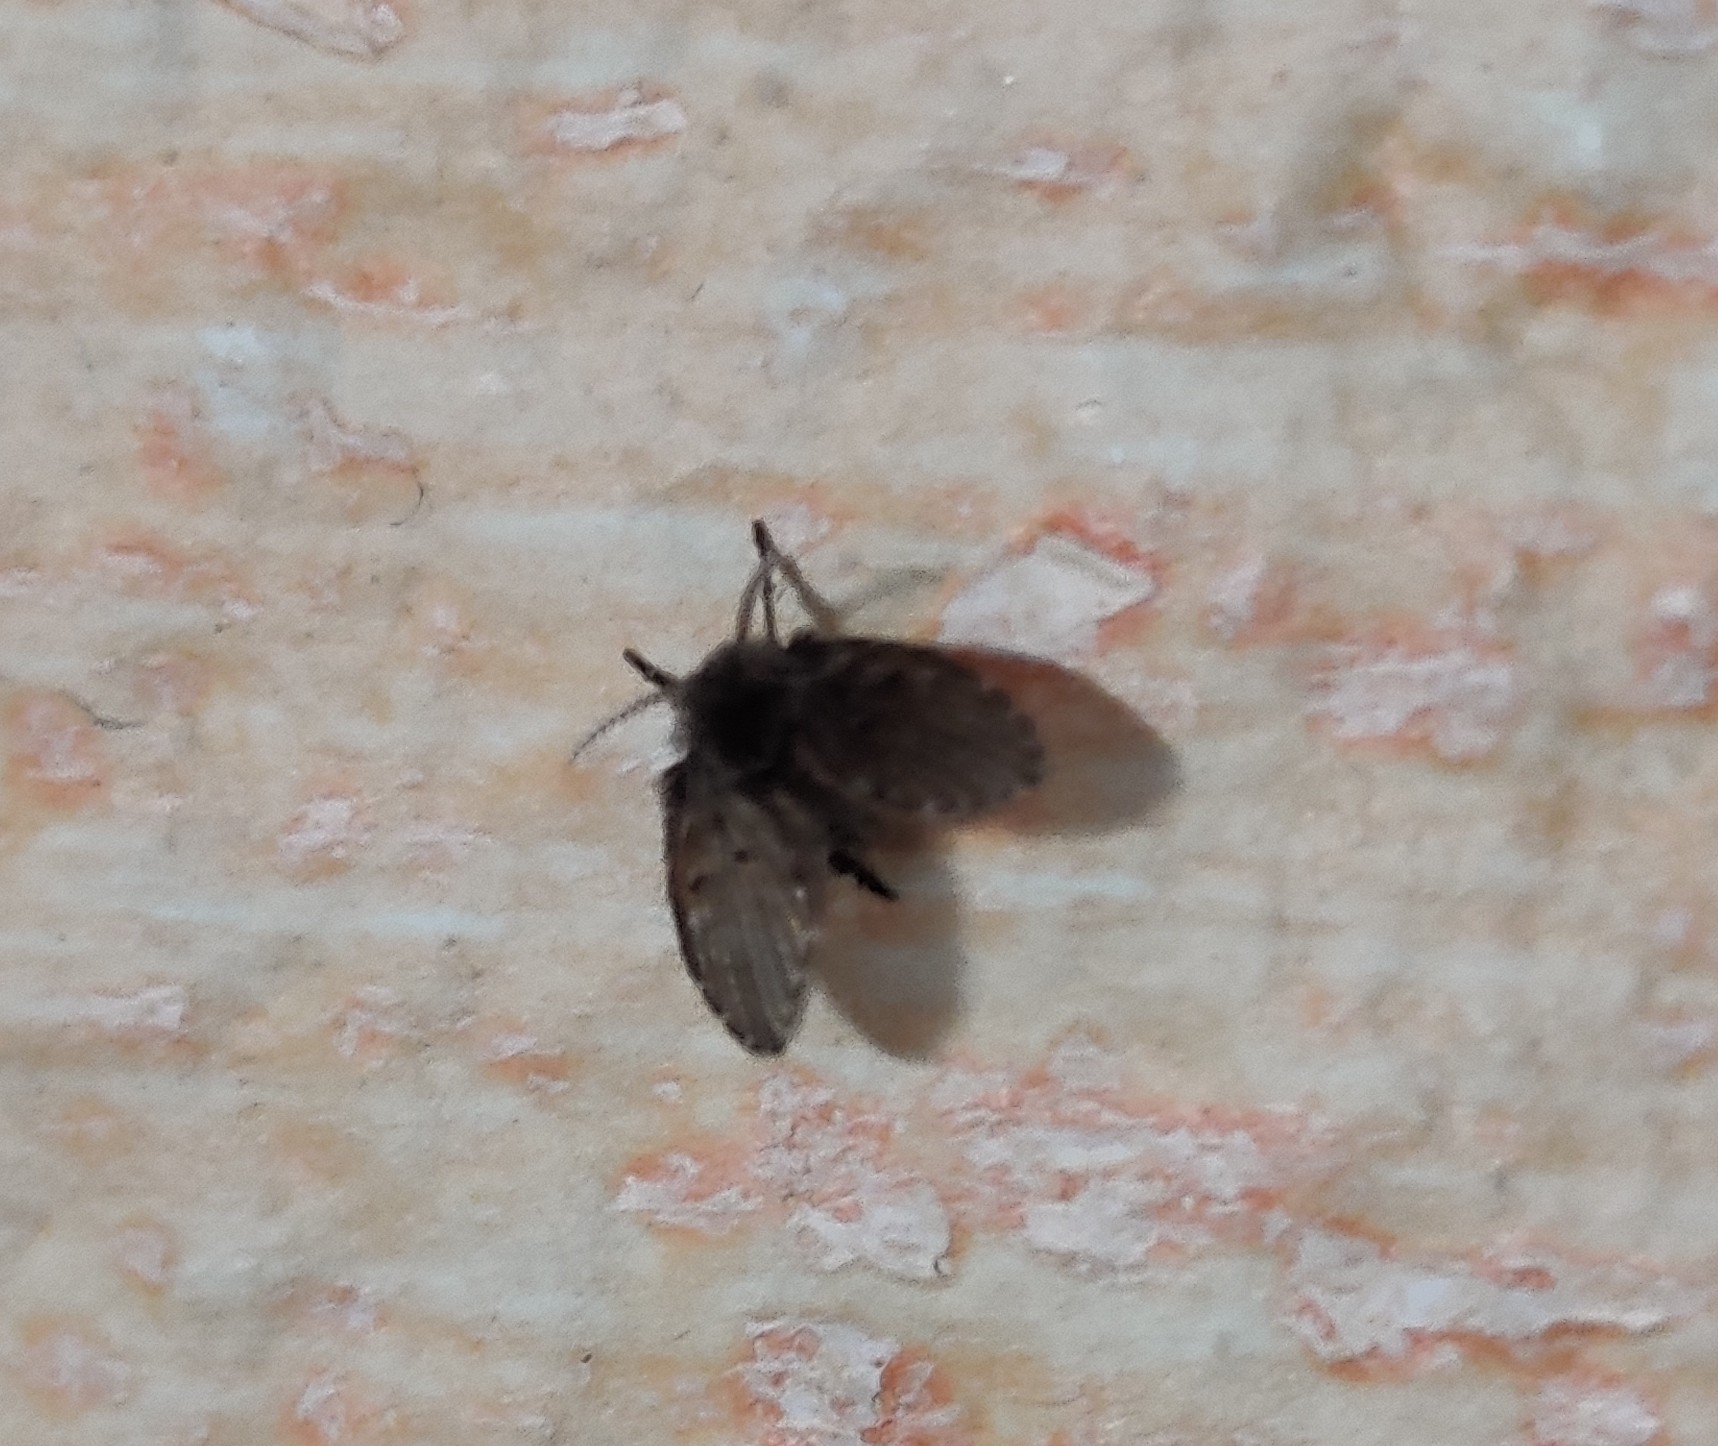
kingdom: Animalia
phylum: Arthropoda
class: Insecta
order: Diptera
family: Psychodidae
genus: Clogmia
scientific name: Clogmia albipunctatus
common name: White-spotted moth fly
